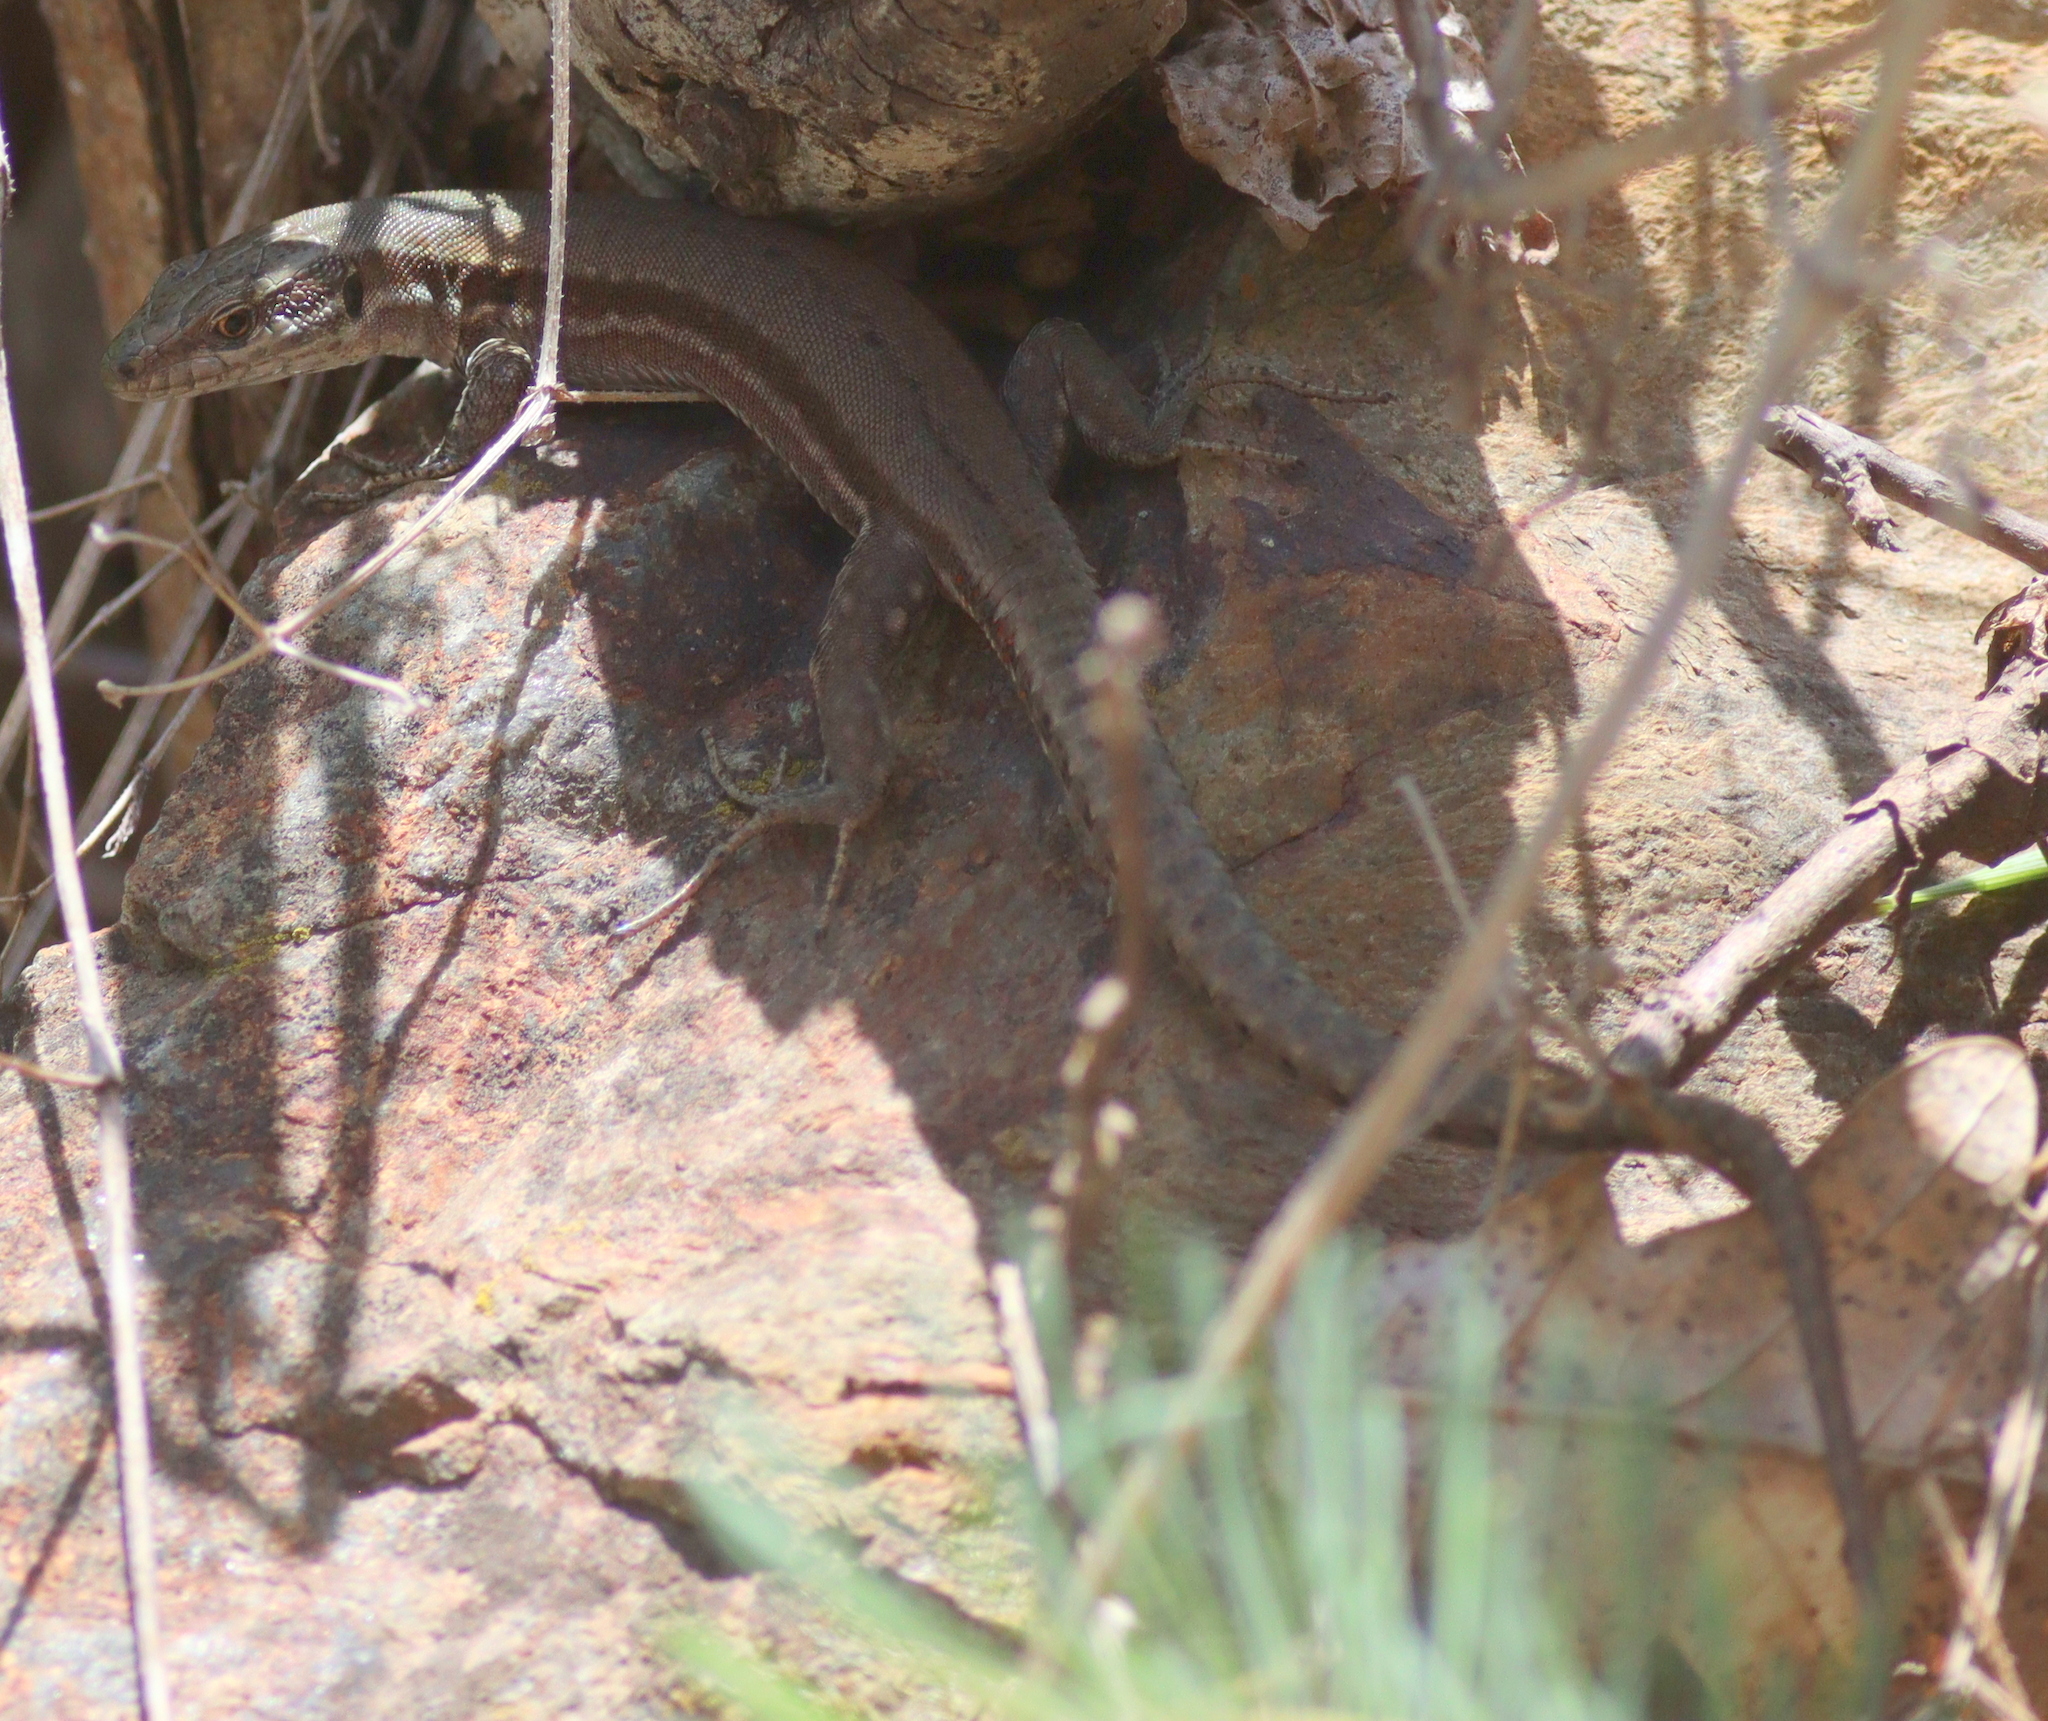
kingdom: Animalia
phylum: Chordata
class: Squamata
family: Lacertidae
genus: Podarcis
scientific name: Podarcis muralis
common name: Common wall lizard
